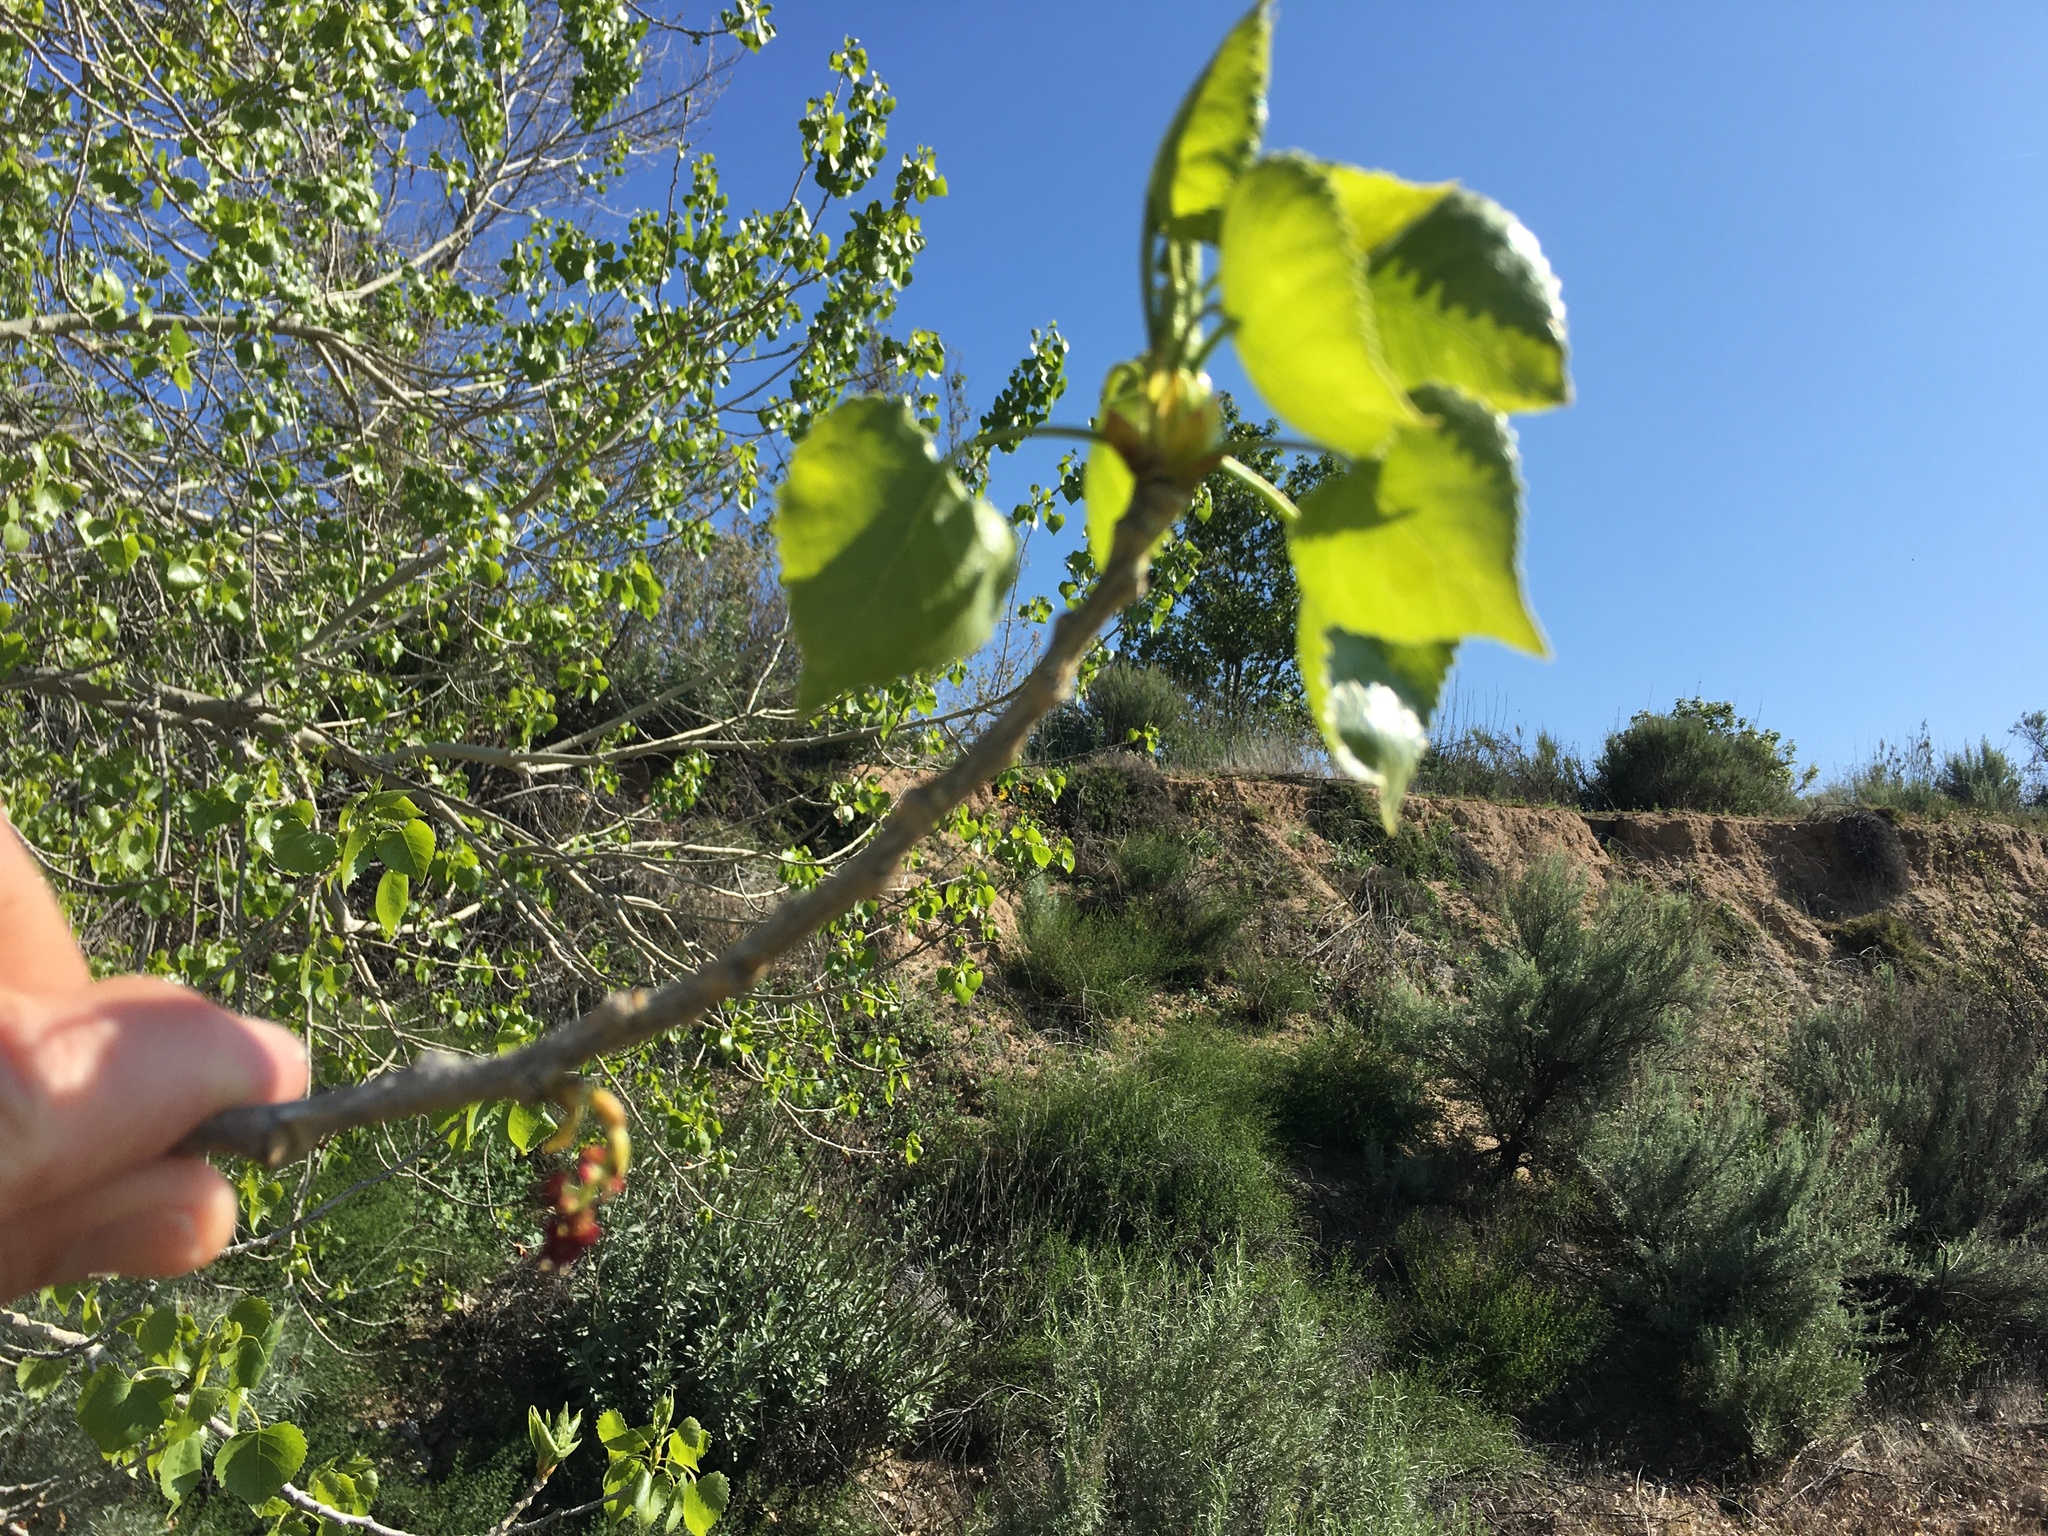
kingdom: Plantae
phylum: Tracheophyta
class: Magnoliopsida
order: Malpighiales
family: Salicaceae
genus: Populus
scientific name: Populus fremontii
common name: Fremont's cottonwood
